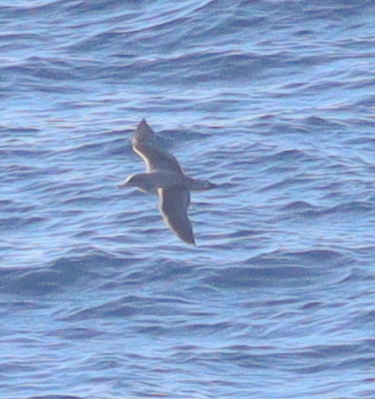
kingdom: Animalia
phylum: Chordata
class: Aves
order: Procellariiformes
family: Procellariidae
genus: Calonectris
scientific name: Calonectris diomedea
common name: Cory's shearwater
